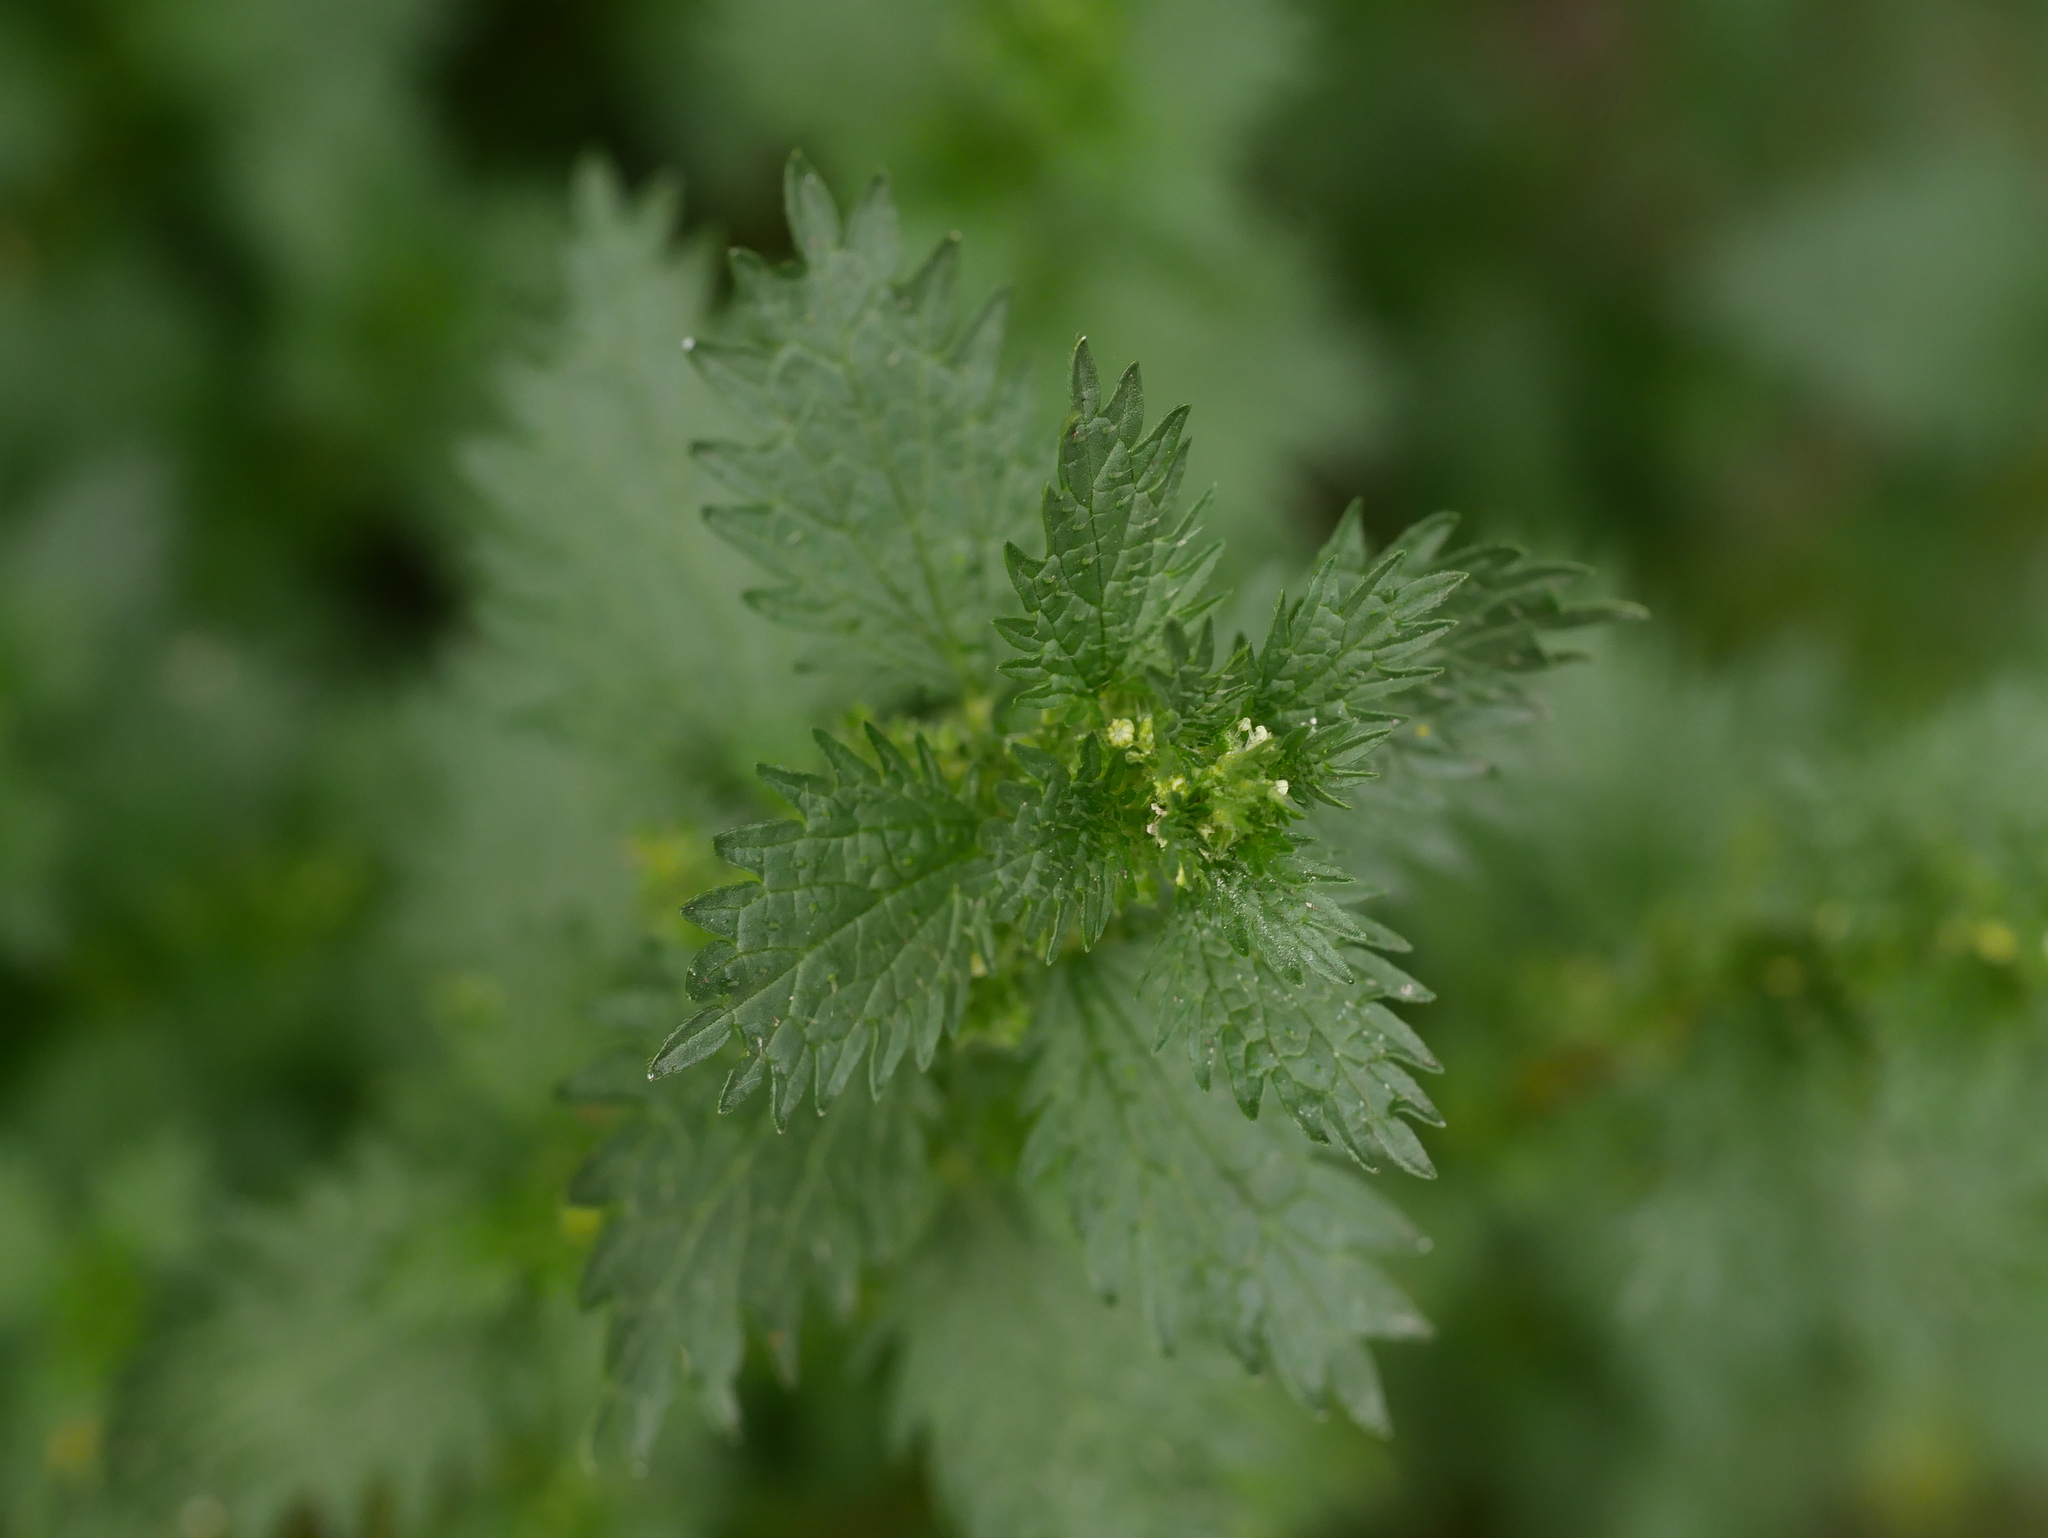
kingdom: Plantae
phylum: Tracheophyta
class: Magnoliopsida
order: Rosales
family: Urticaceae
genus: Urtica
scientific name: Urtica urens
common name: Dwarf nettle
